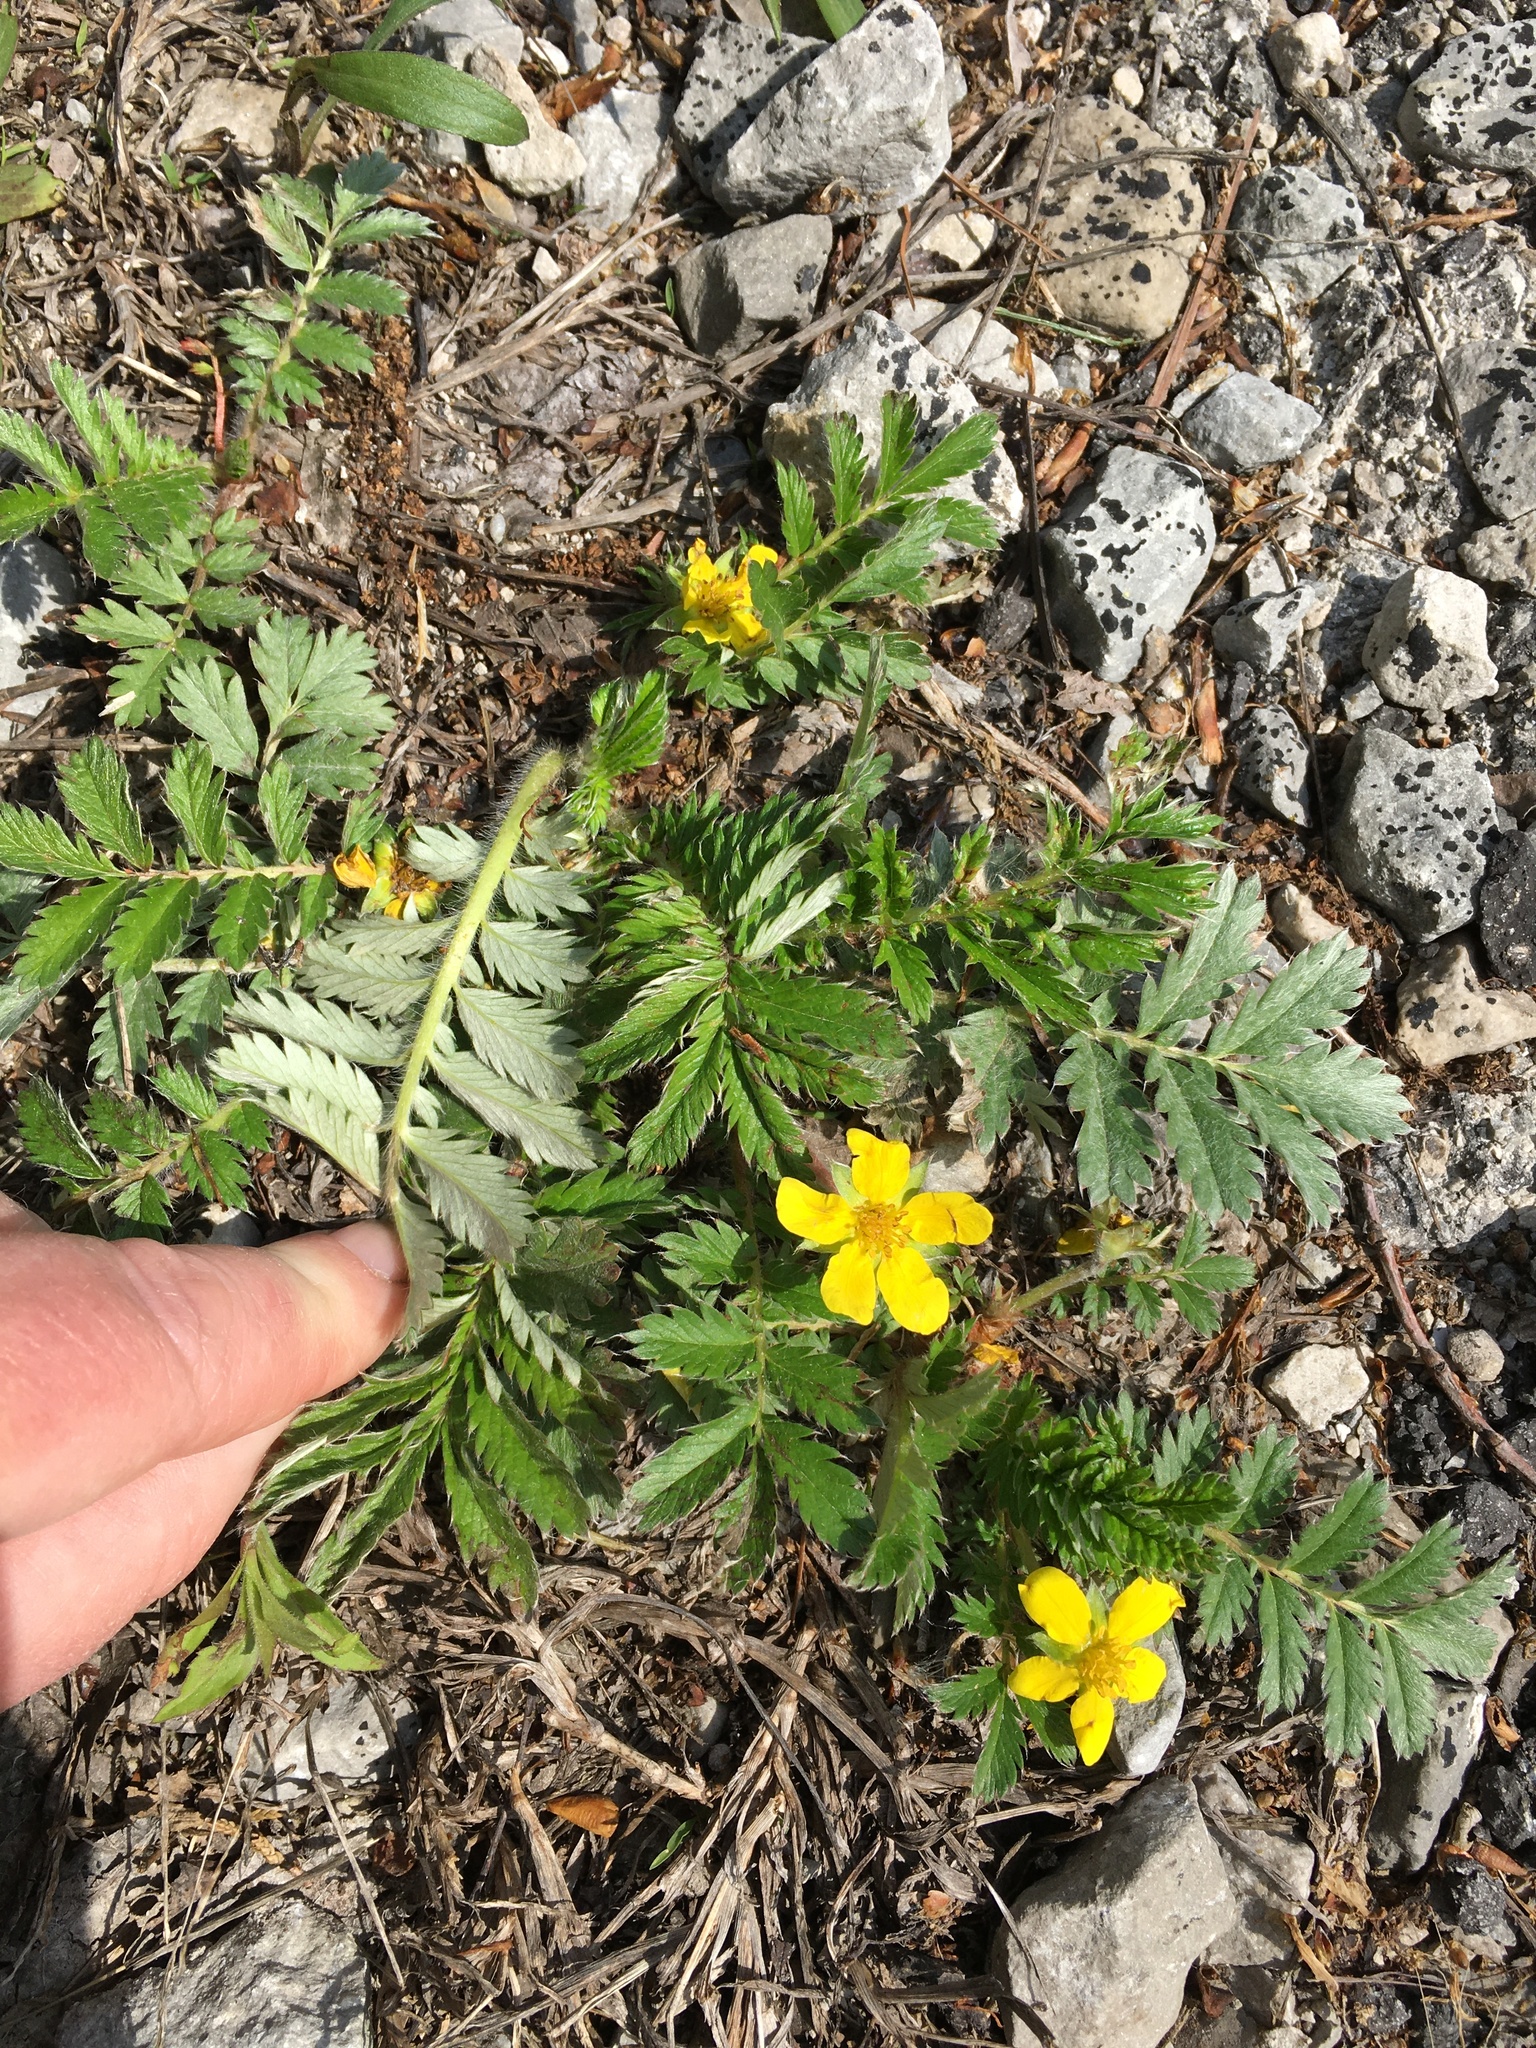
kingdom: Plantae
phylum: Tracheophyta
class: Magnoliopsida
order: Rosales
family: Rosaceae
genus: Argentina
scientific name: Argentina anserina
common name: Common silverweed
